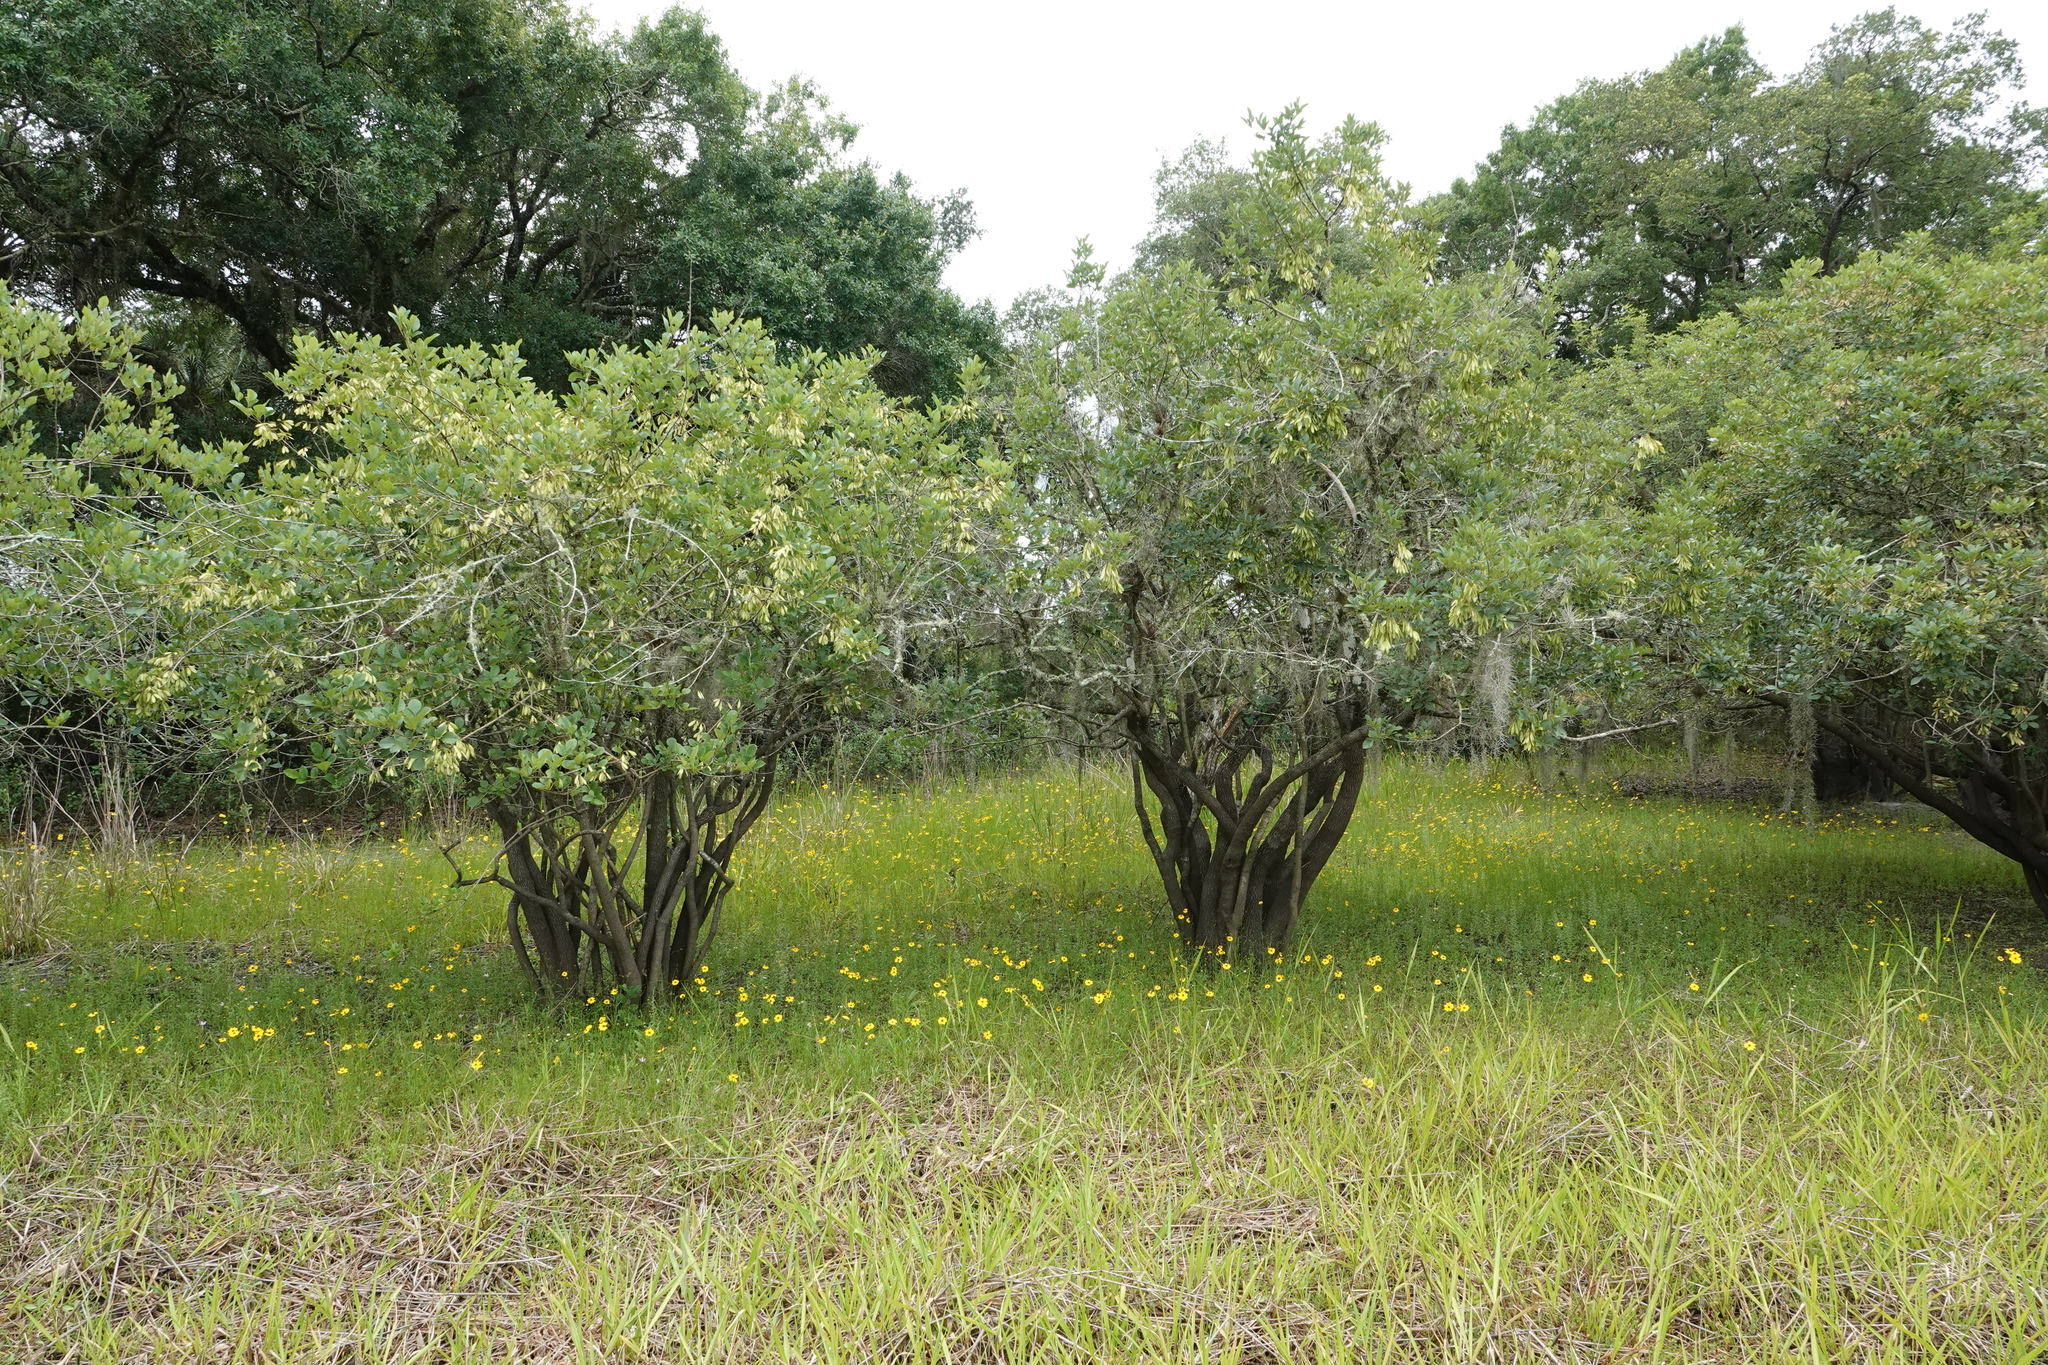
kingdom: Plantae
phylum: Tracheophyta
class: Magnoliopsida
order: Lamiales
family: Oleaceae
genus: Fraxinus
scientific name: Fraxinus caroliniana
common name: Carolina ash
